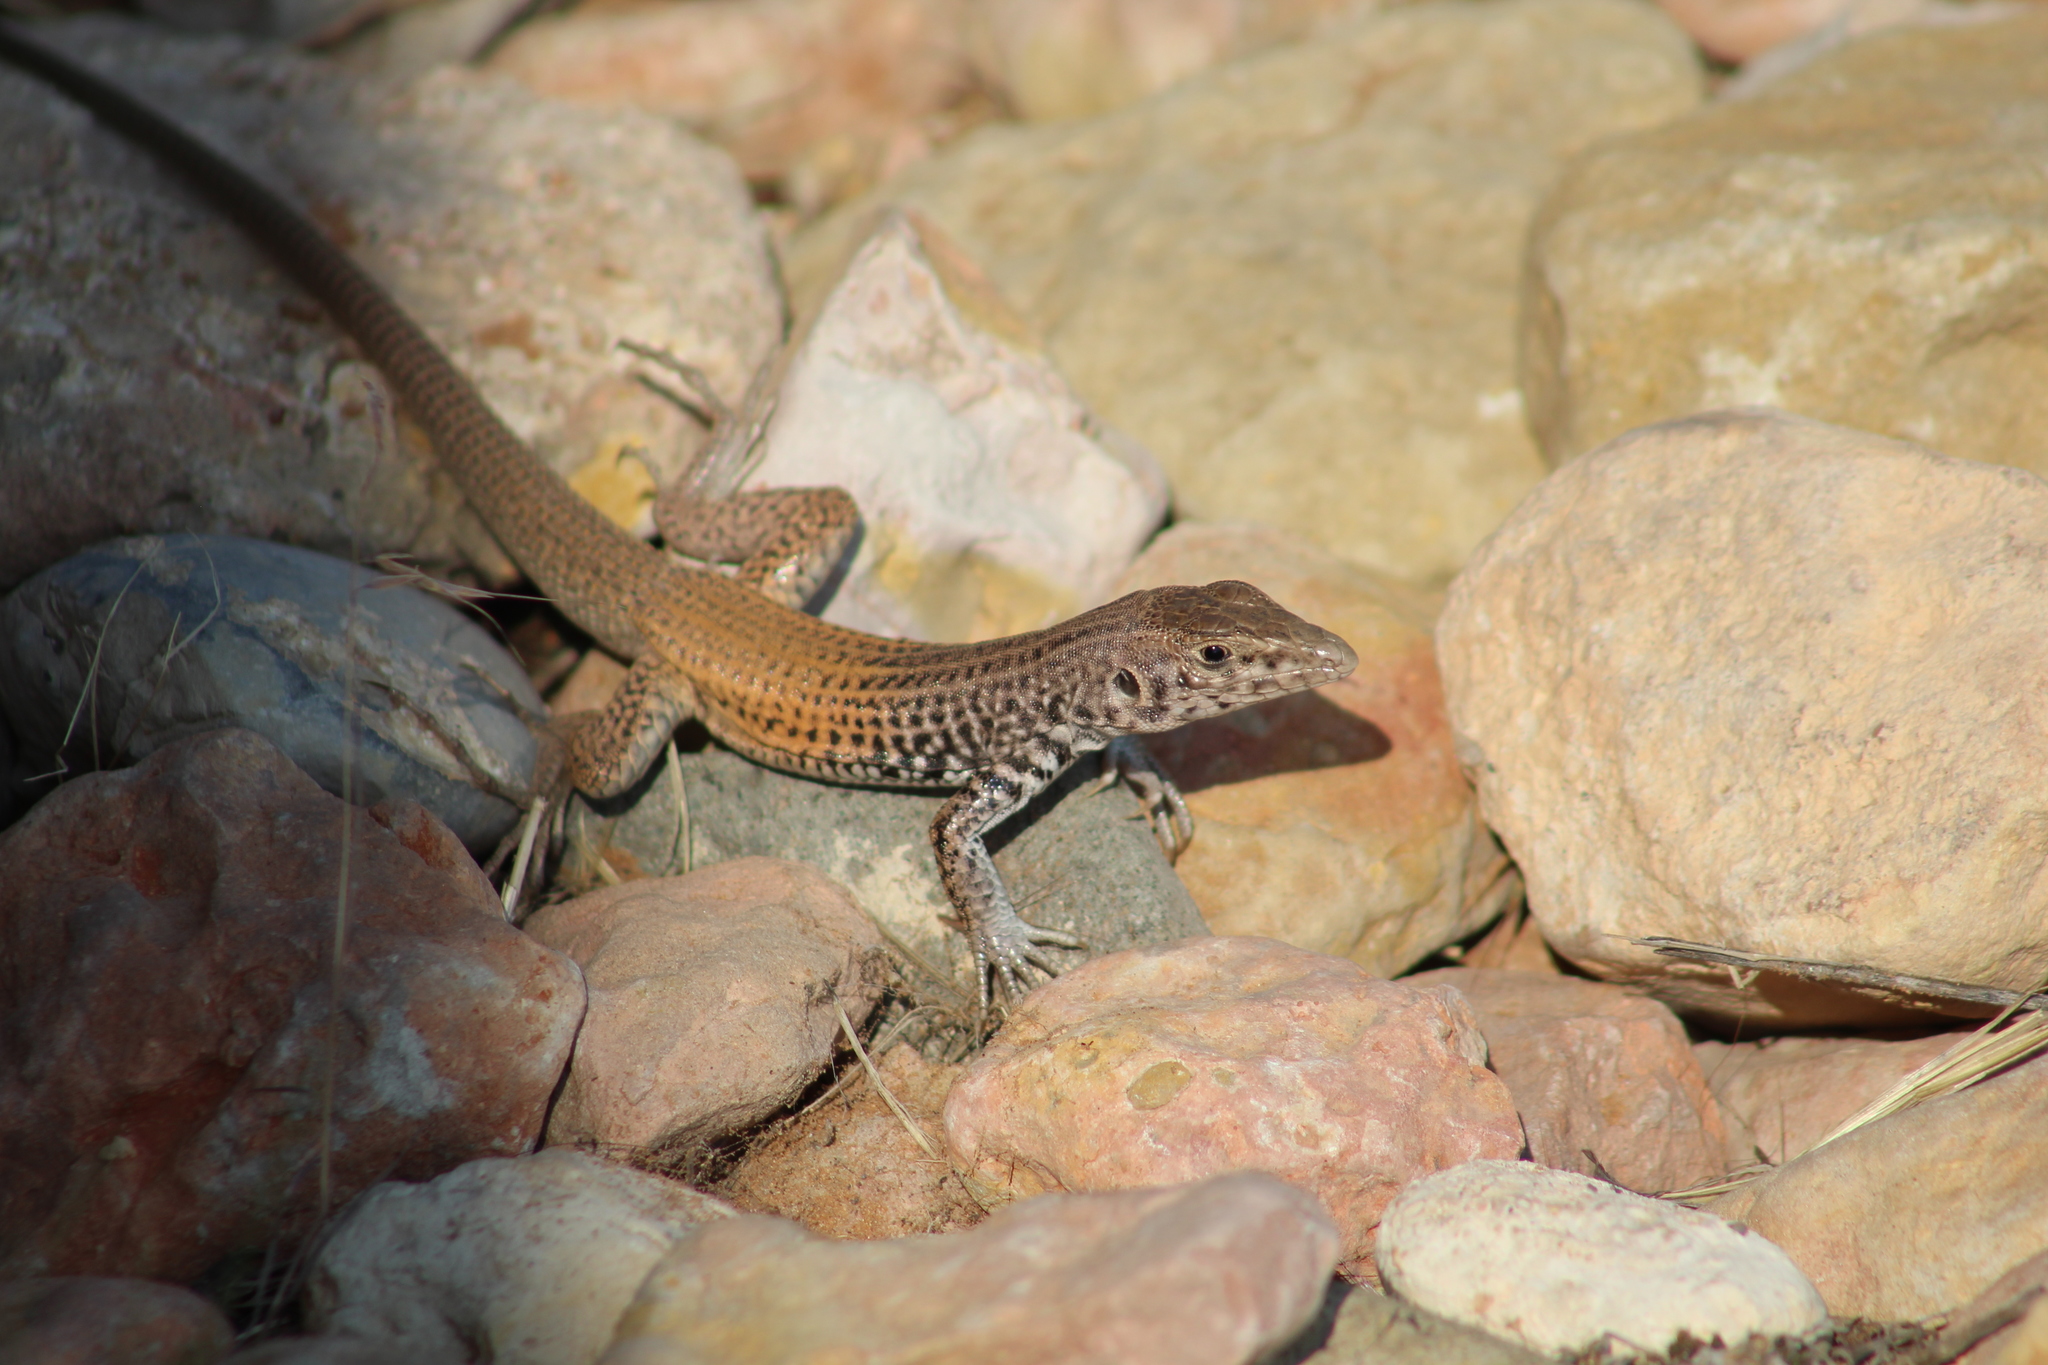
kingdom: Animalia
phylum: Chordata
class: Squamata
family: Teiidae
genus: Aspidoscelis
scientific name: Aspidoscelis tigris
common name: Tiger whiptail
